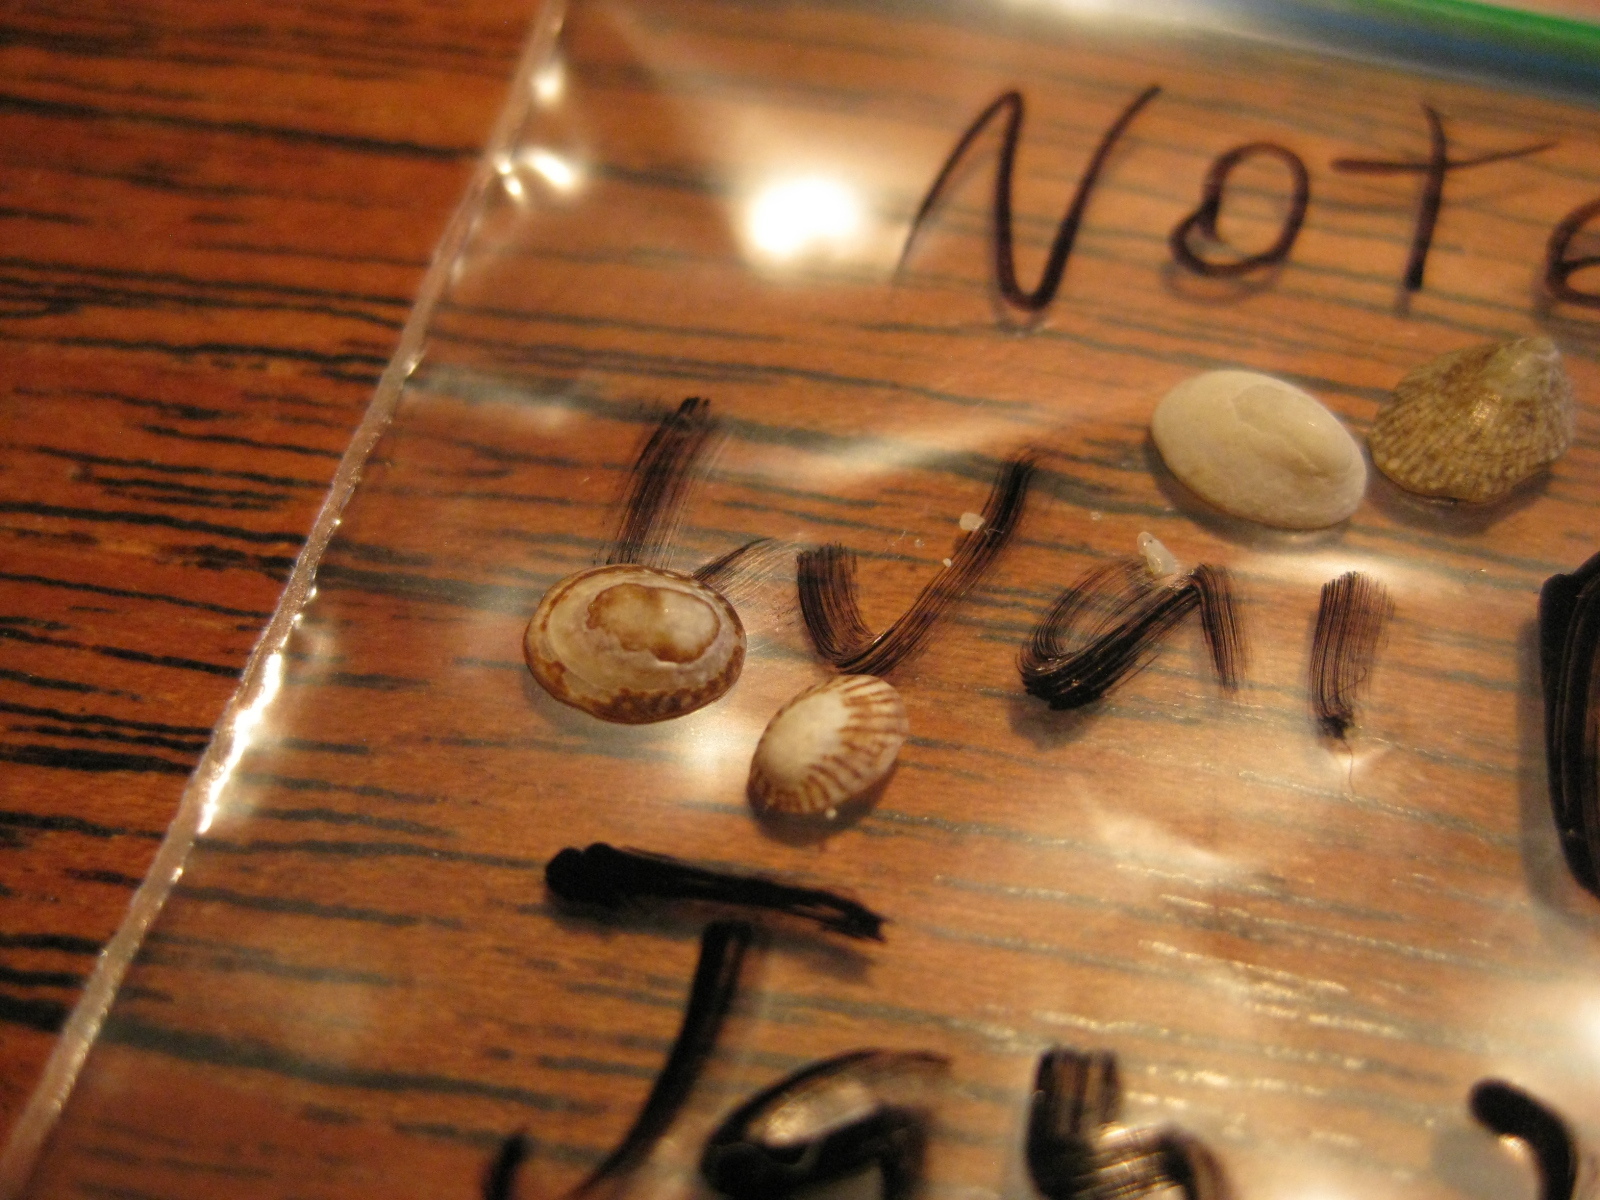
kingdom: Animalia
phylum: Mollusca
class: Gastropoda
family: Lottiidae
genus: Notoacmea
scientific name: Notoacmea
